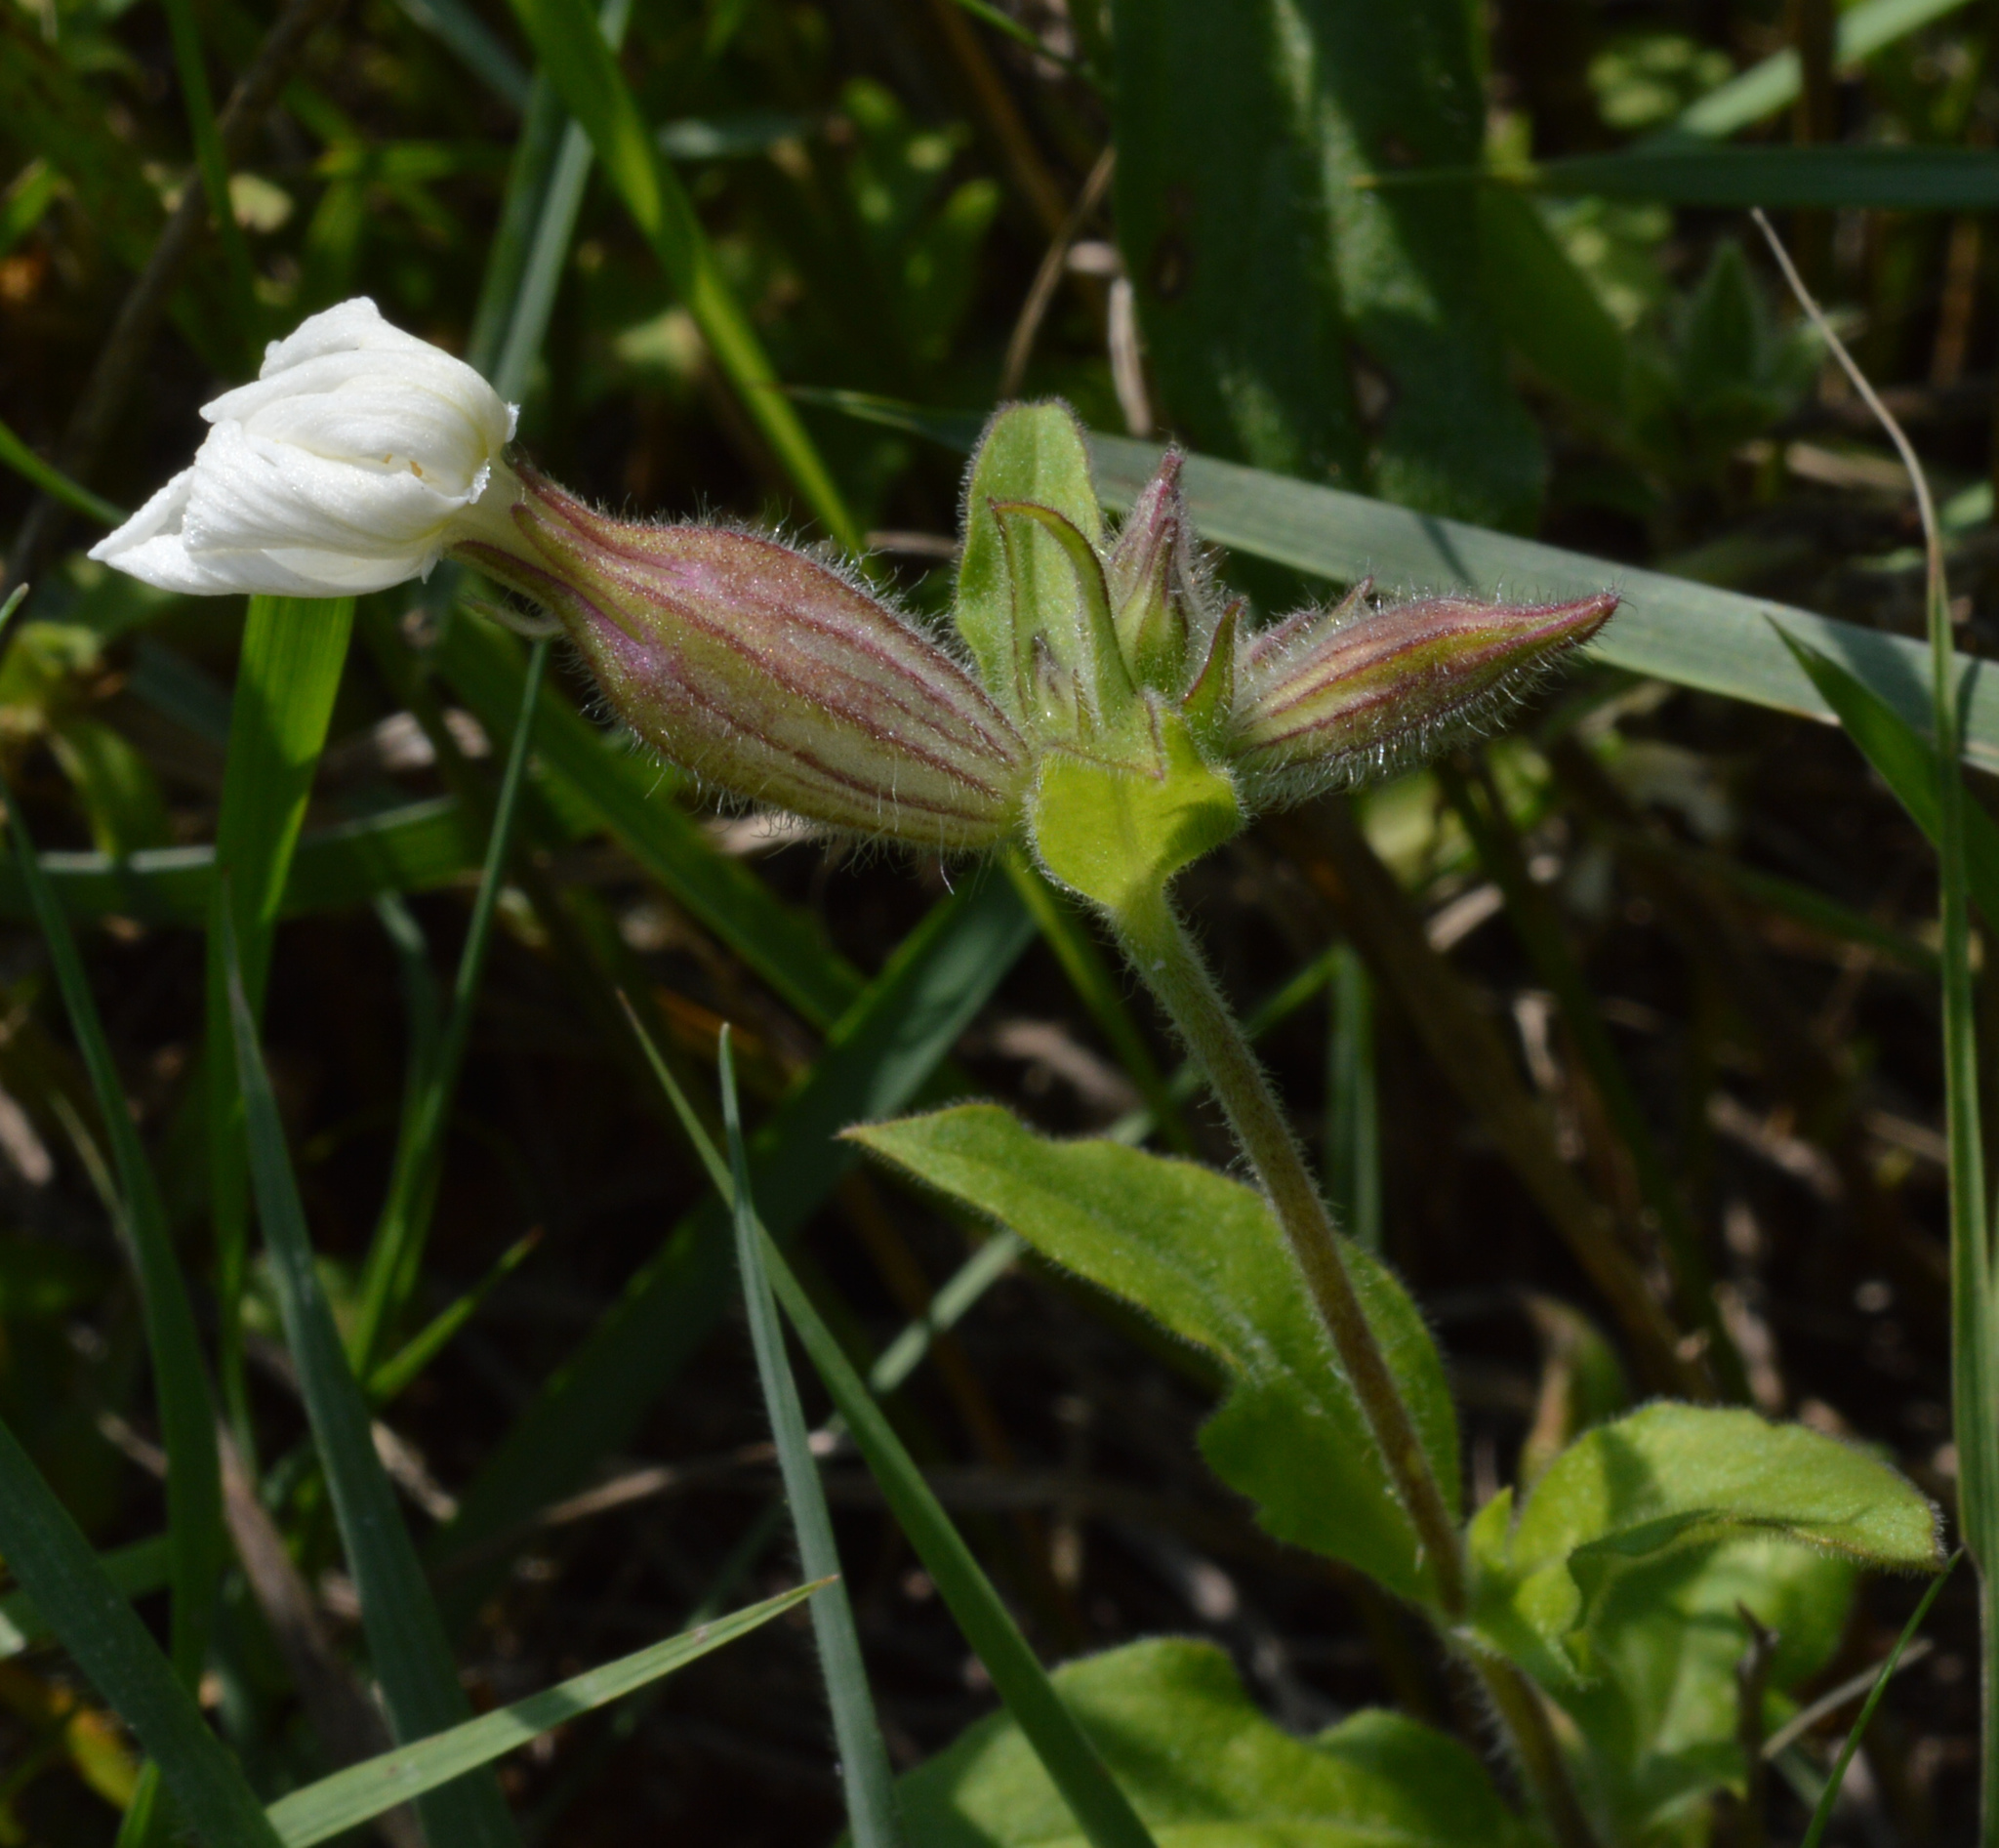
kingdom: Plantae
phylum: Tracheophyta
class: Magnoliopsida
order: Caryophyllales
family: Caryophyllaceae
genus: Silene
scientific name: Silene latifolia
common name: White campion
